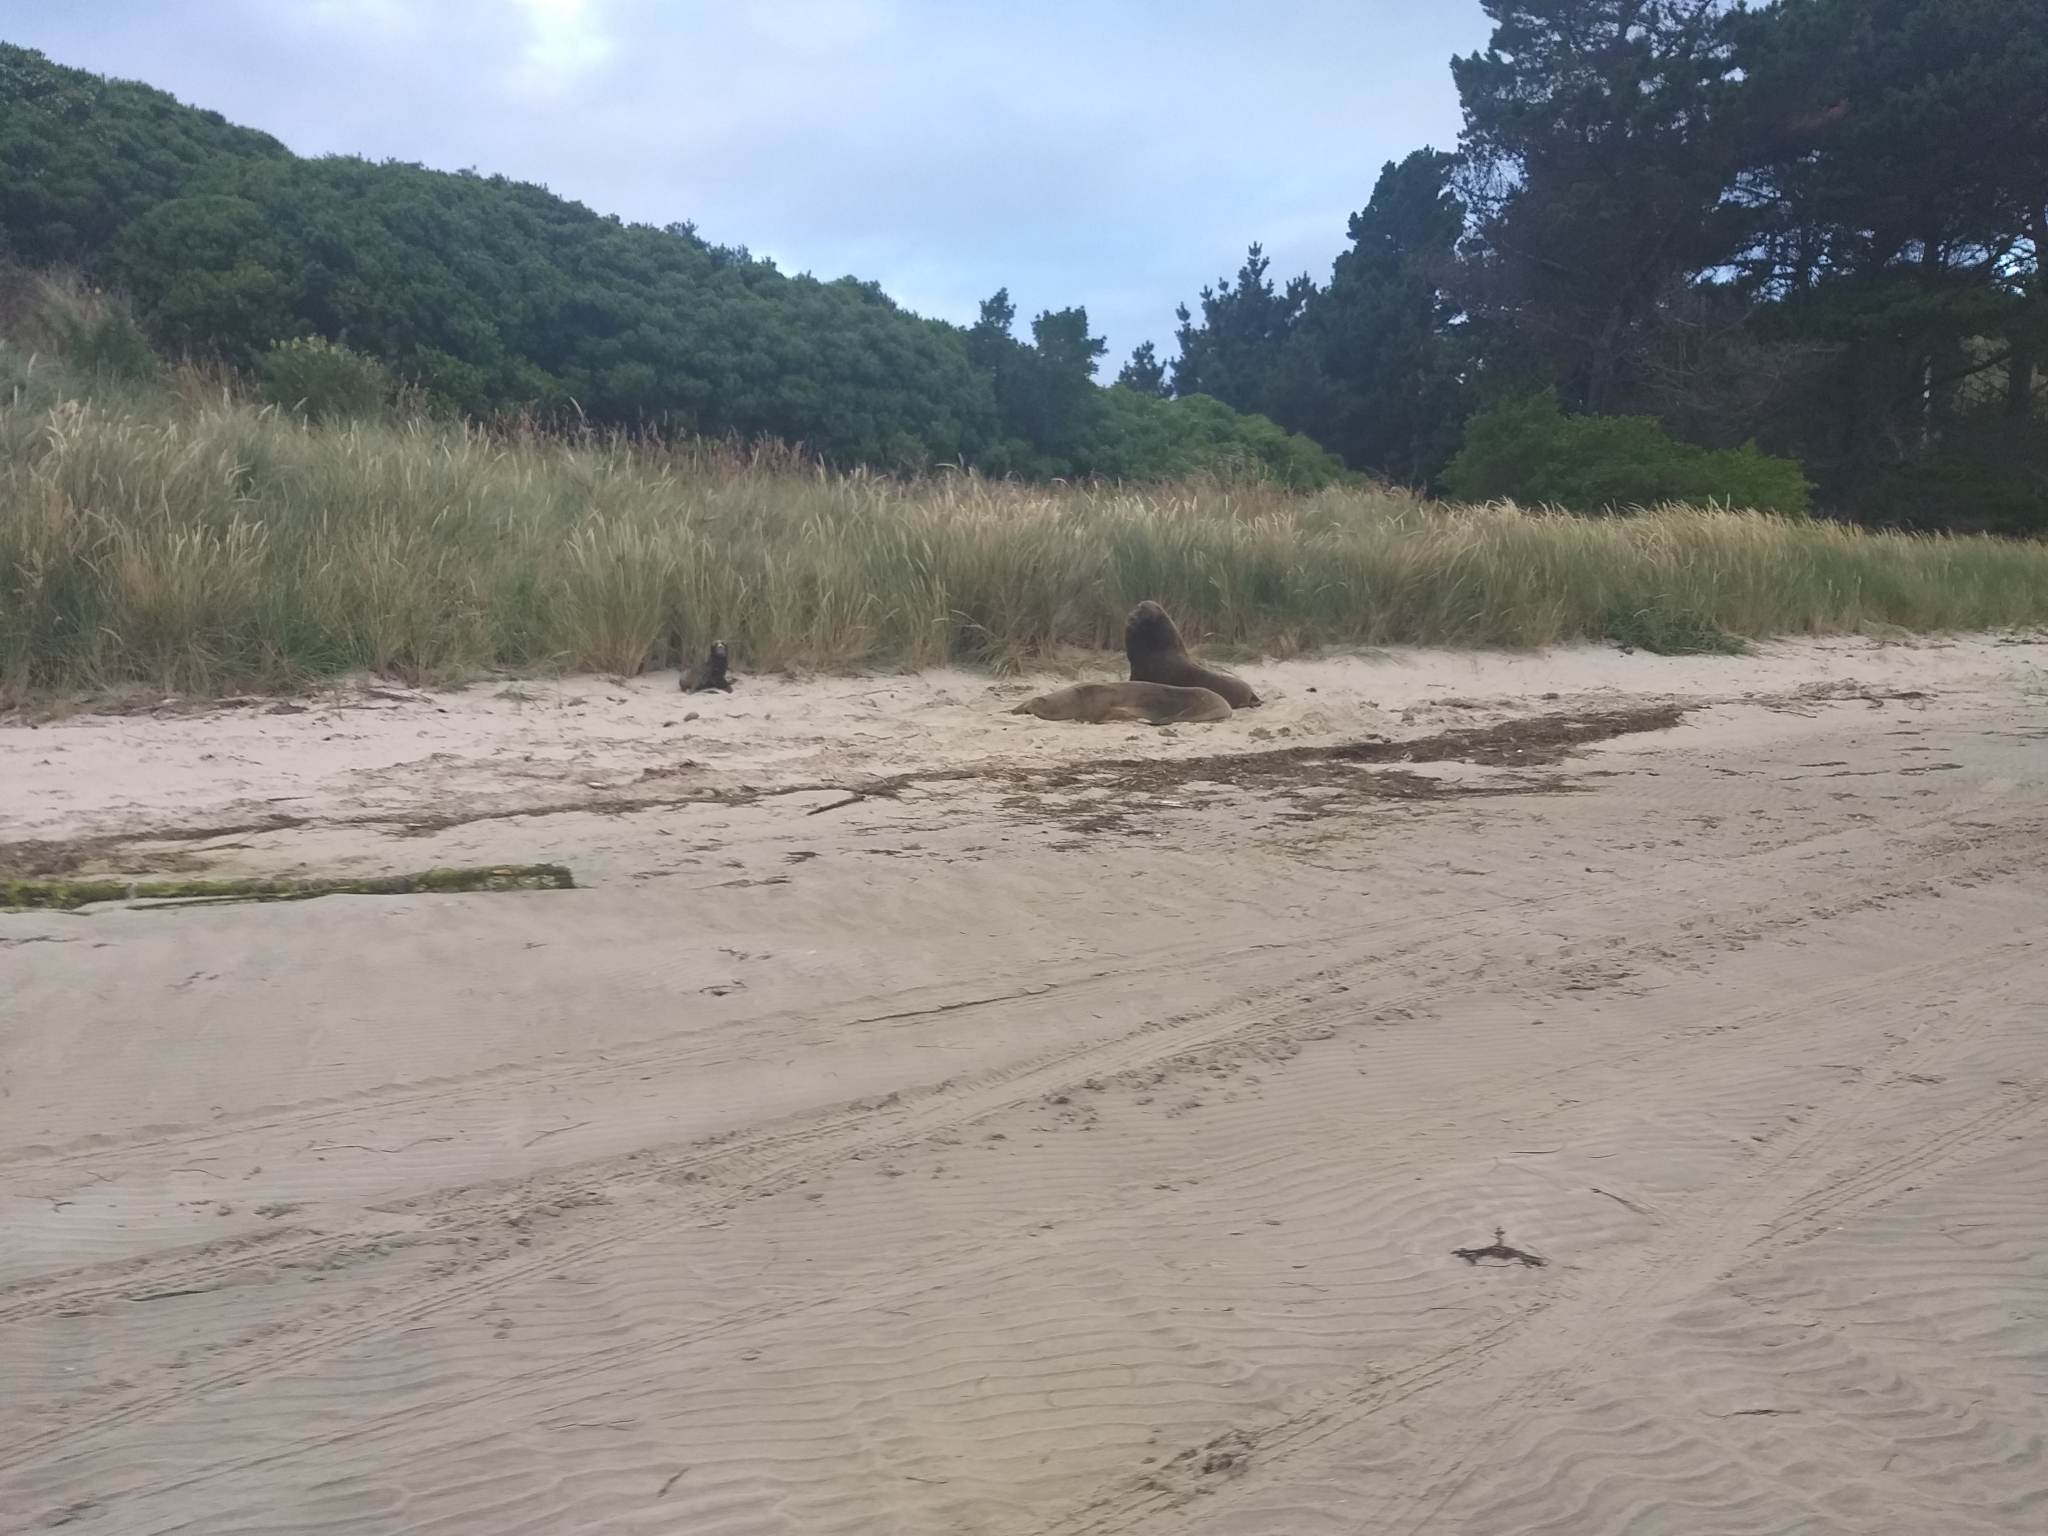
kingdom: Animalia
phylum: Chordata
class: Mammalia
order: Carnivora
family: Otariidae
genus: Phocarctos
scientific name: Phocarctos hookeri
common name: New zealand sea lion
